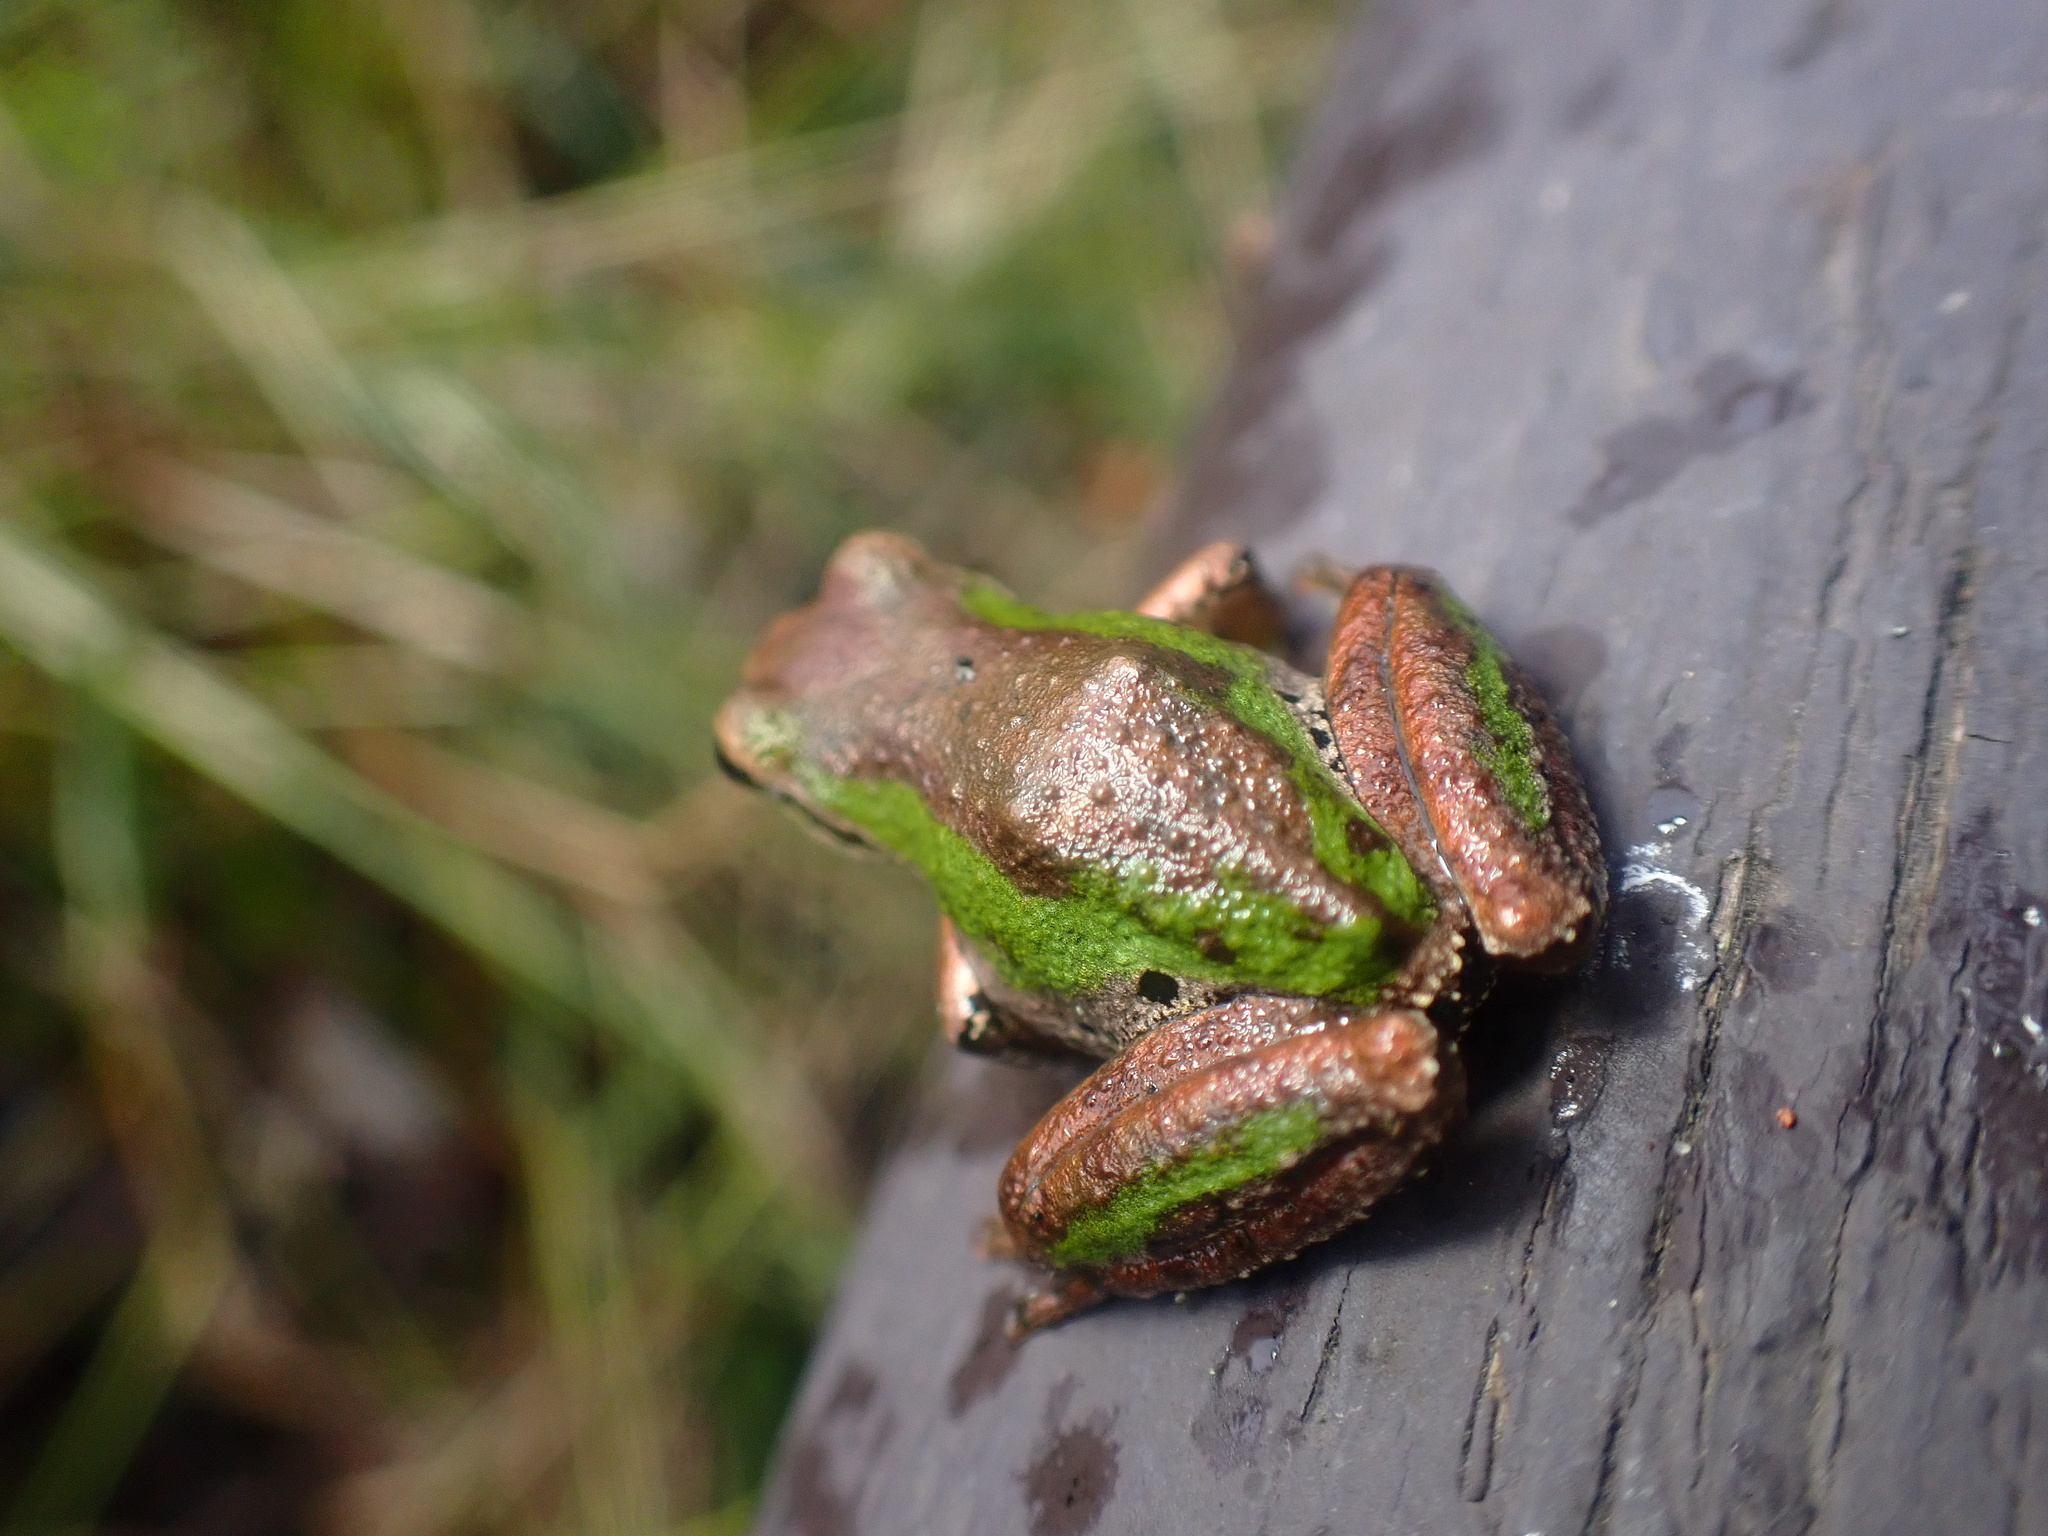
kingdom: Animalia
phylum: Chordata
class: Amphibia
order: Anura
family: Hylidae
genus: Pseudacris
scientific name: Pseudacris regilla
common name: Pacific chorus frog
